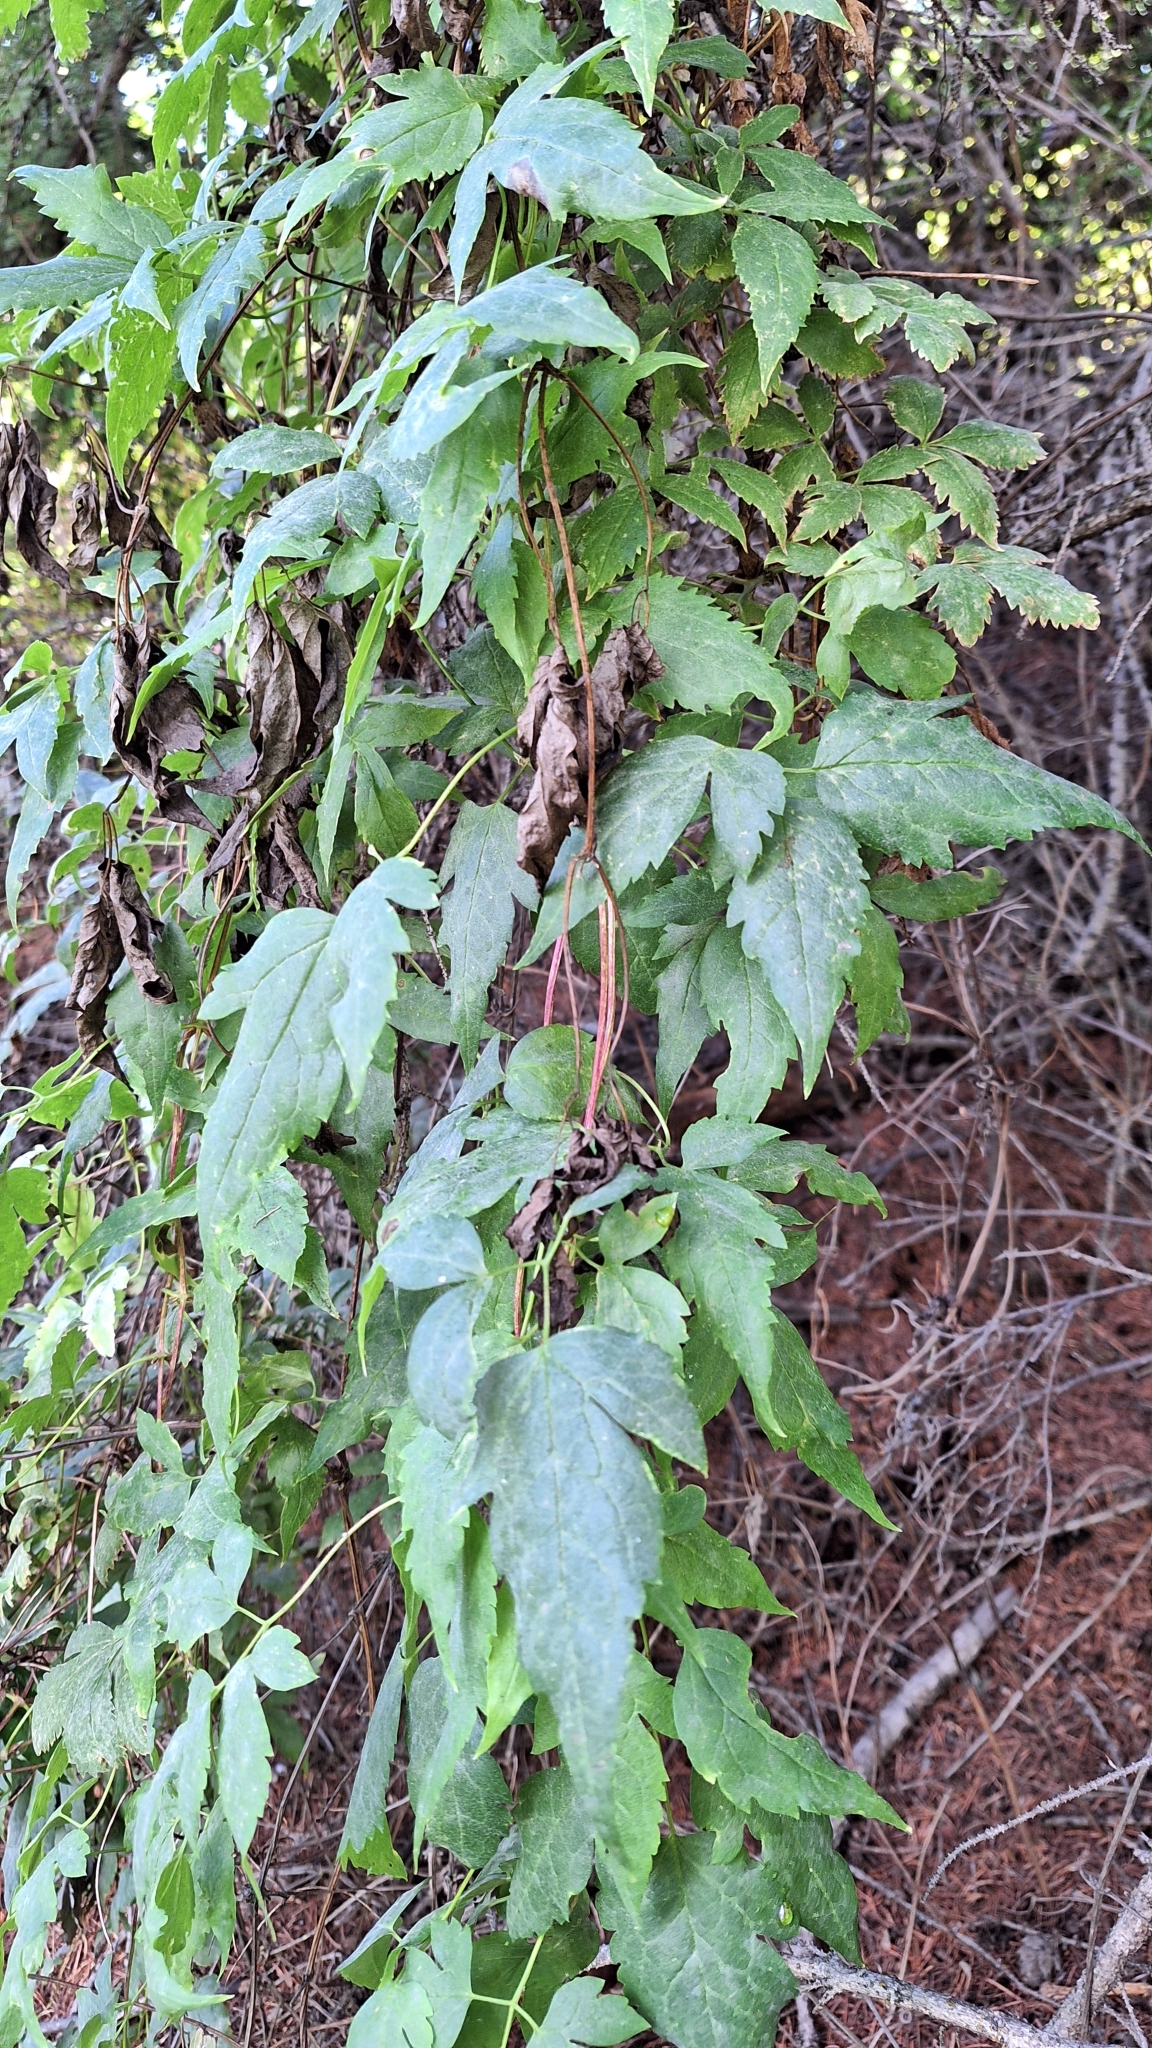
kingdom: Plantae
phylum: Tracheophyta
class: Magnoliopsida
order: Ranunculales
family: Ranunculaceae
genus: Clematis
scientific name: Clematis sibirica
